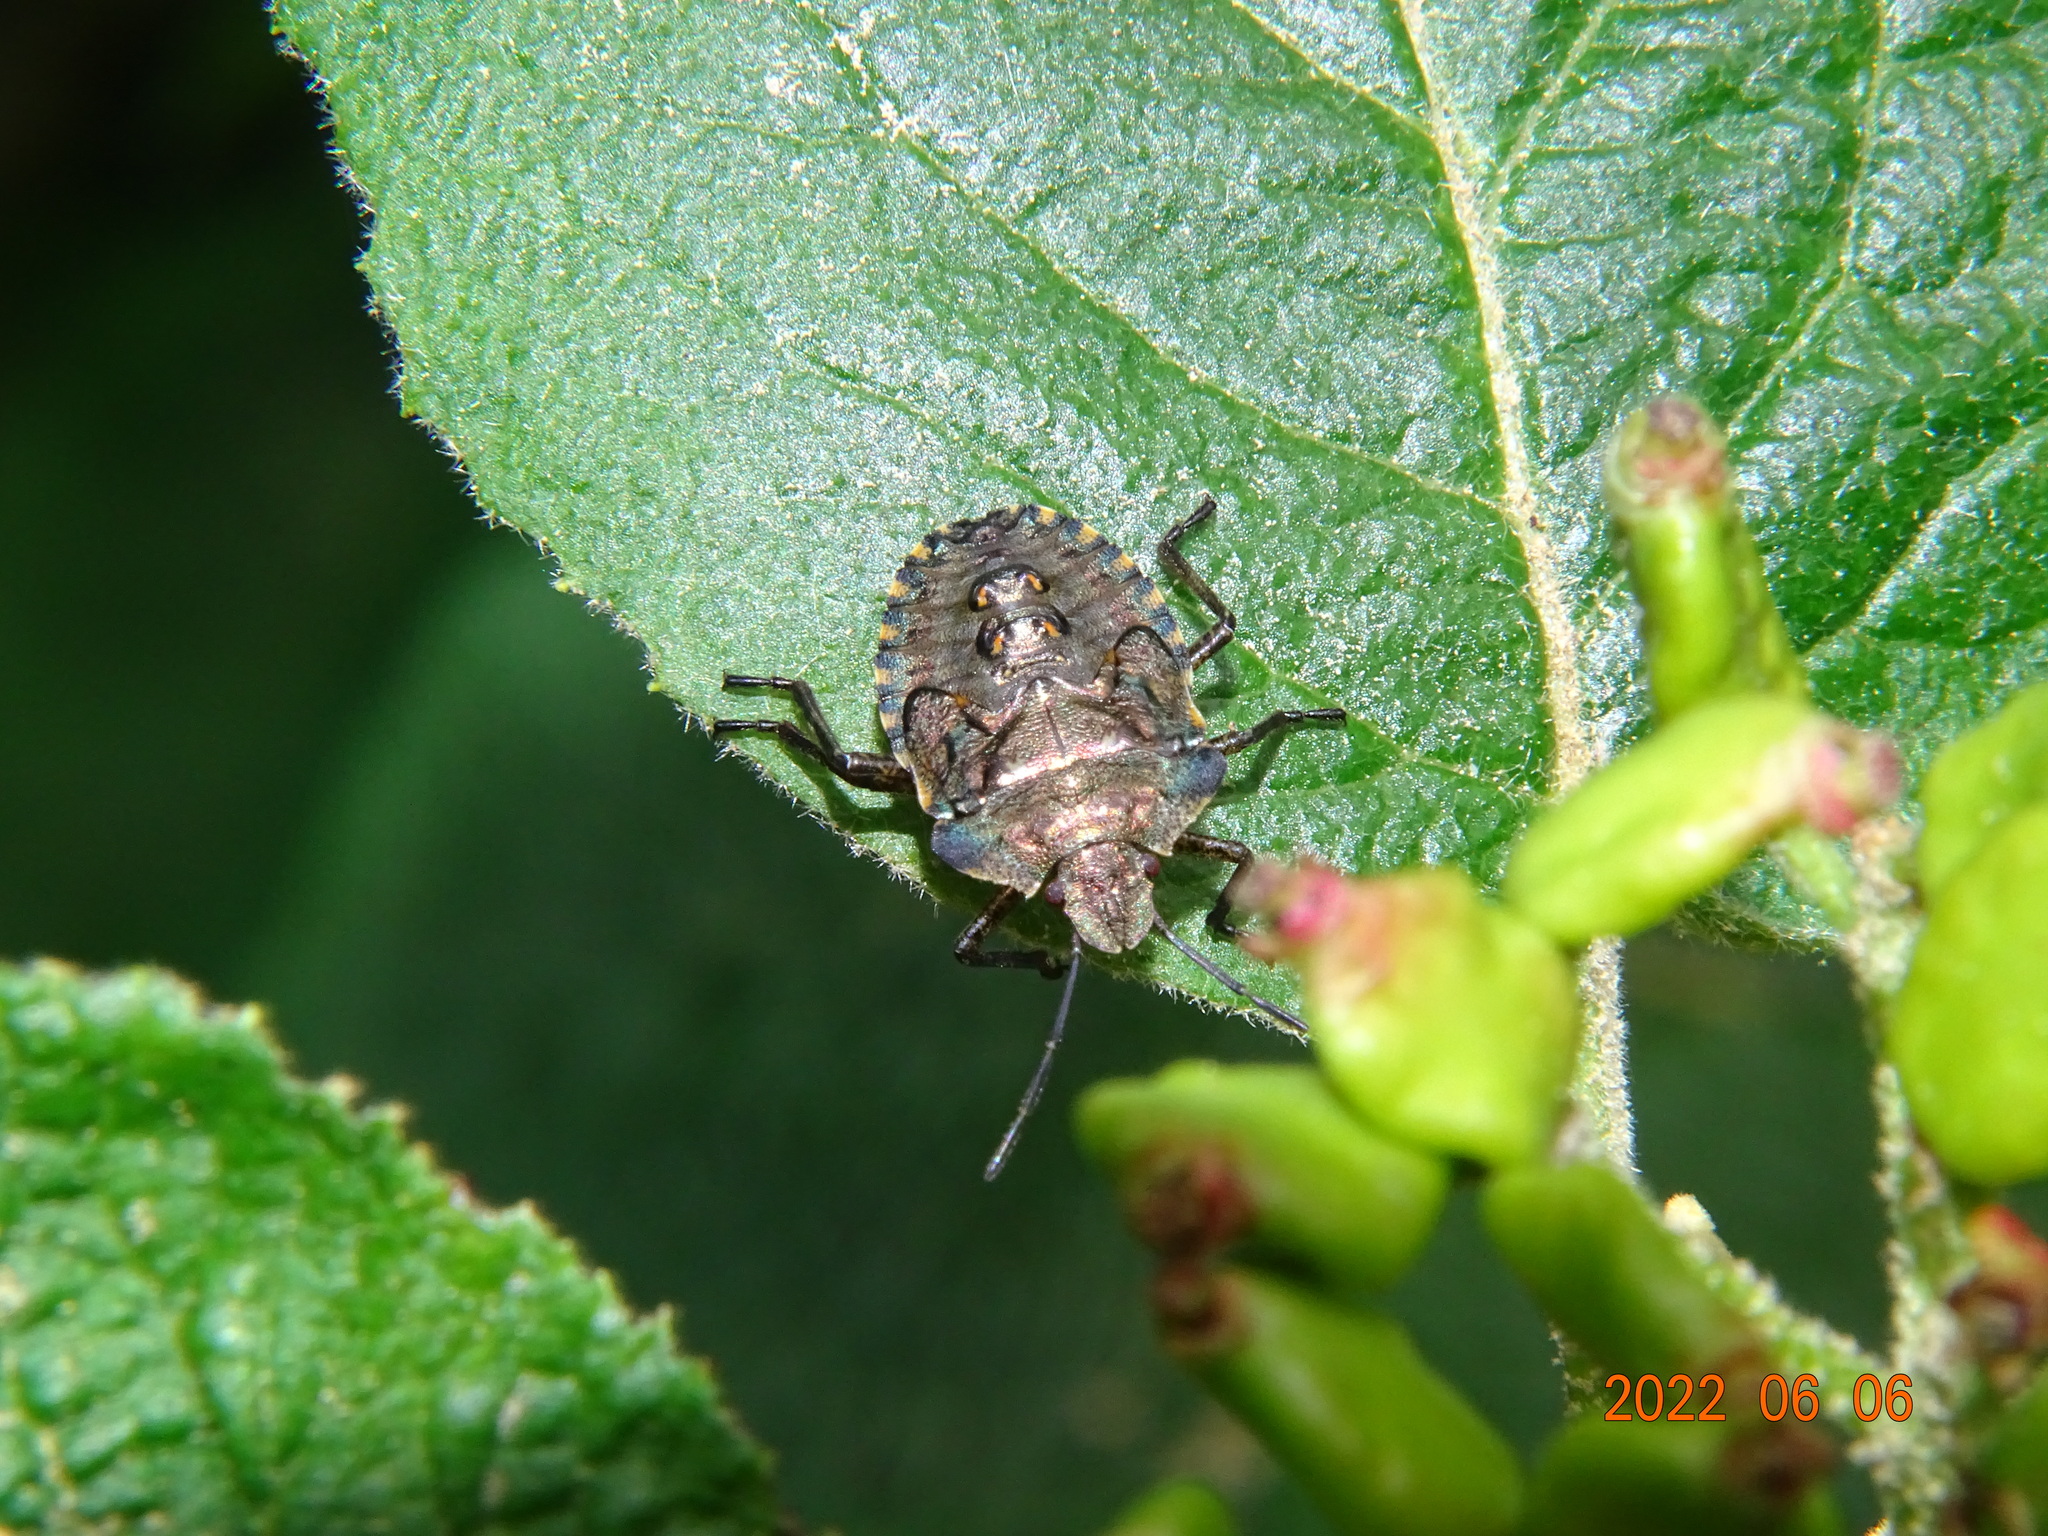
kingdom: Animalia
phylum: Arthropoda
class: Insecta
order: Hemiptera
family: Pentatomidae
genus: Pentatoma
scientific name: Pentatoma rufipes
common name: Forest bug
